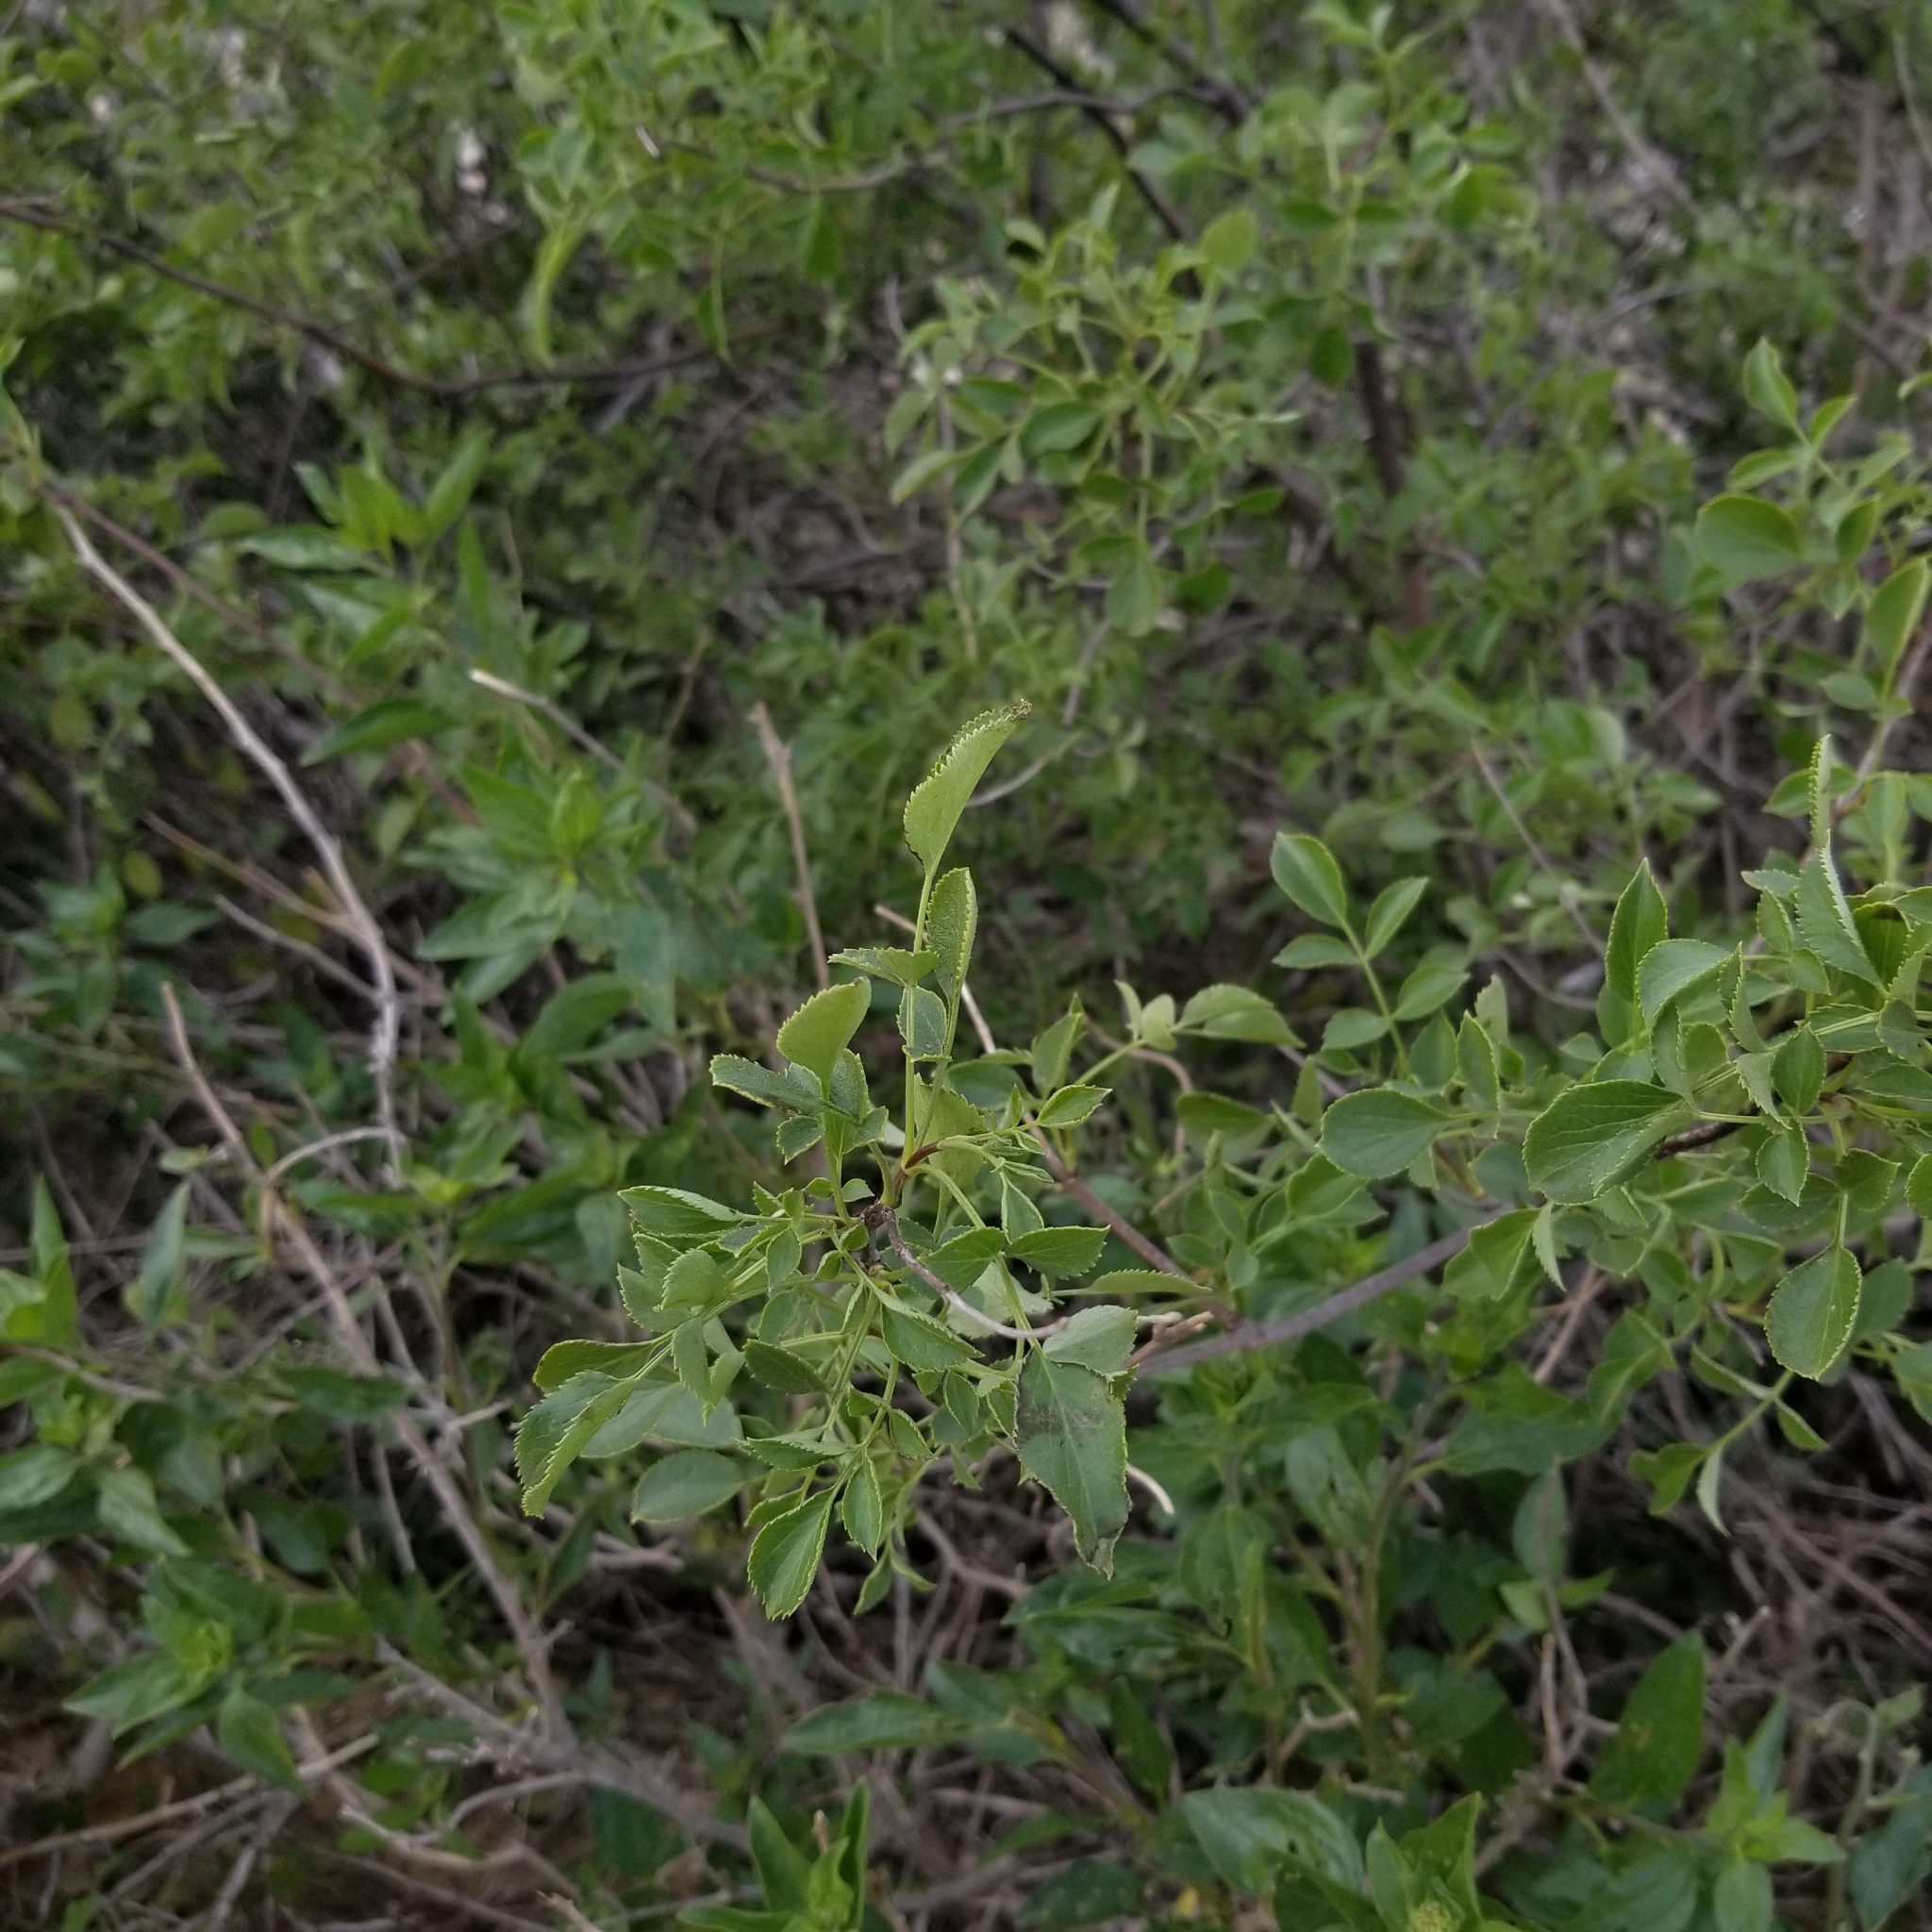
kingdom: Plantae
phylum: Tracheophyta
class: Magnoliopsida
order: Dipsacales
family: Viburnaceae
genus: Sambucus
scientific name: Sambucus cerulea
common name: Blue elder
